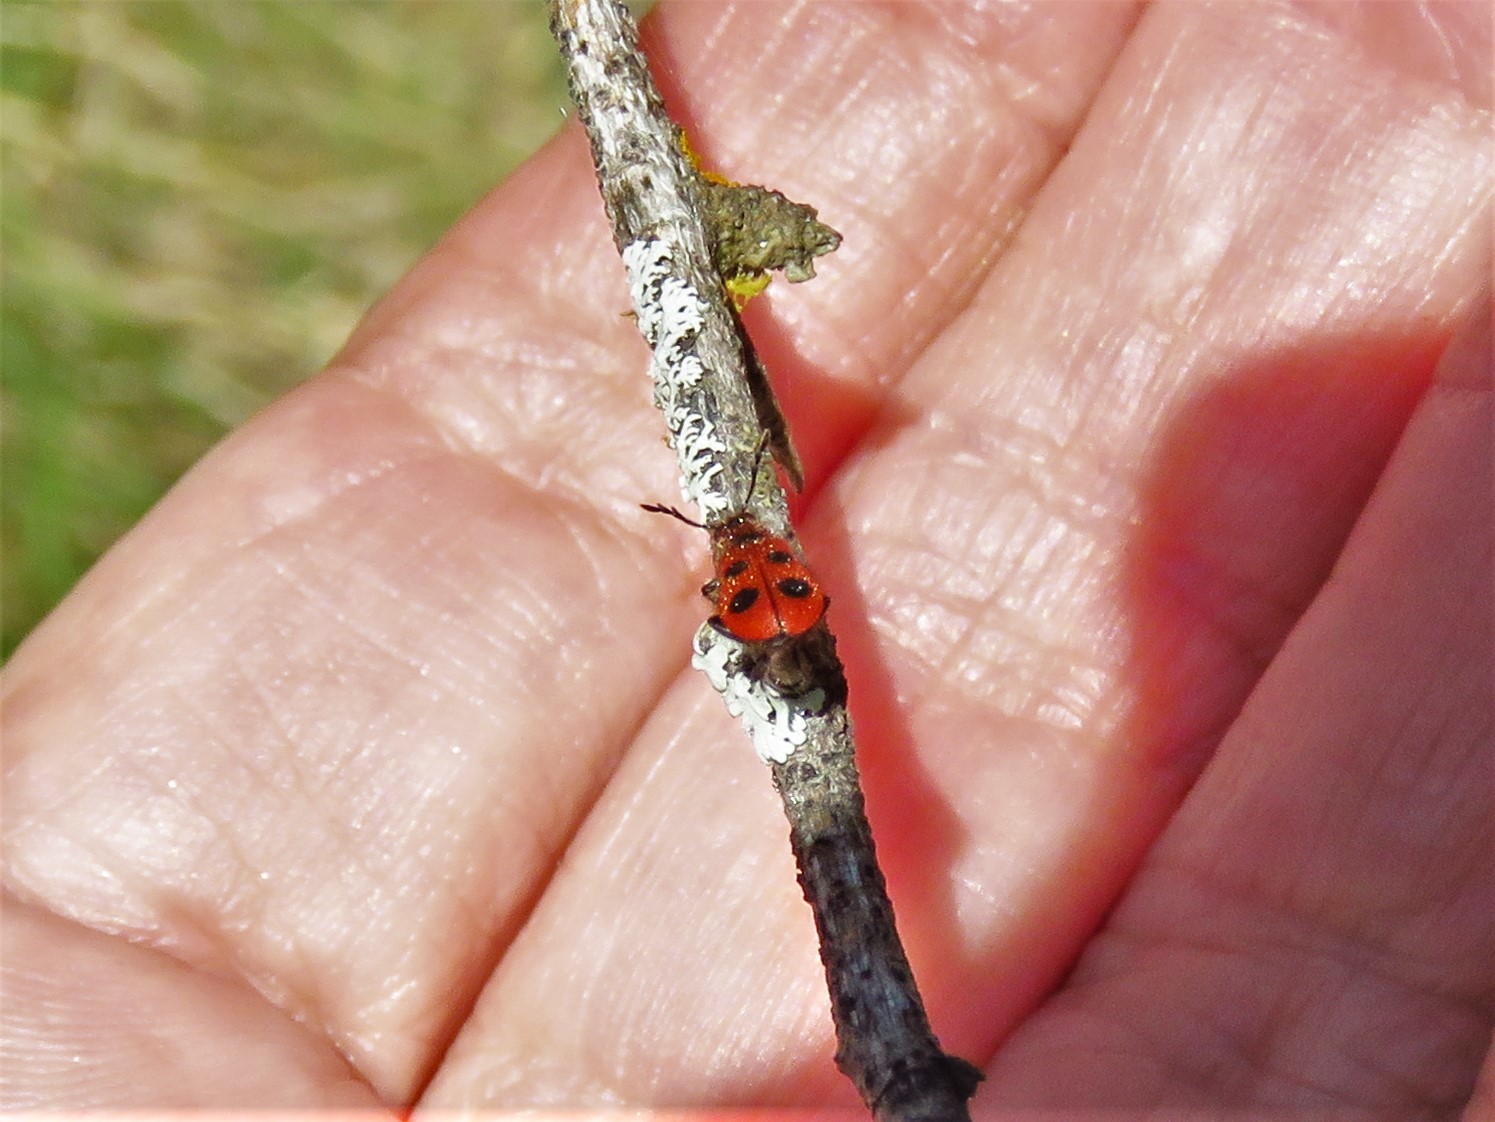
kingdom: Animalia
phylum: Arthropoda
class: Insecta
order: Coleoptera
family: Cleridae
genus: Pelonides
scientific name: Pelonides
